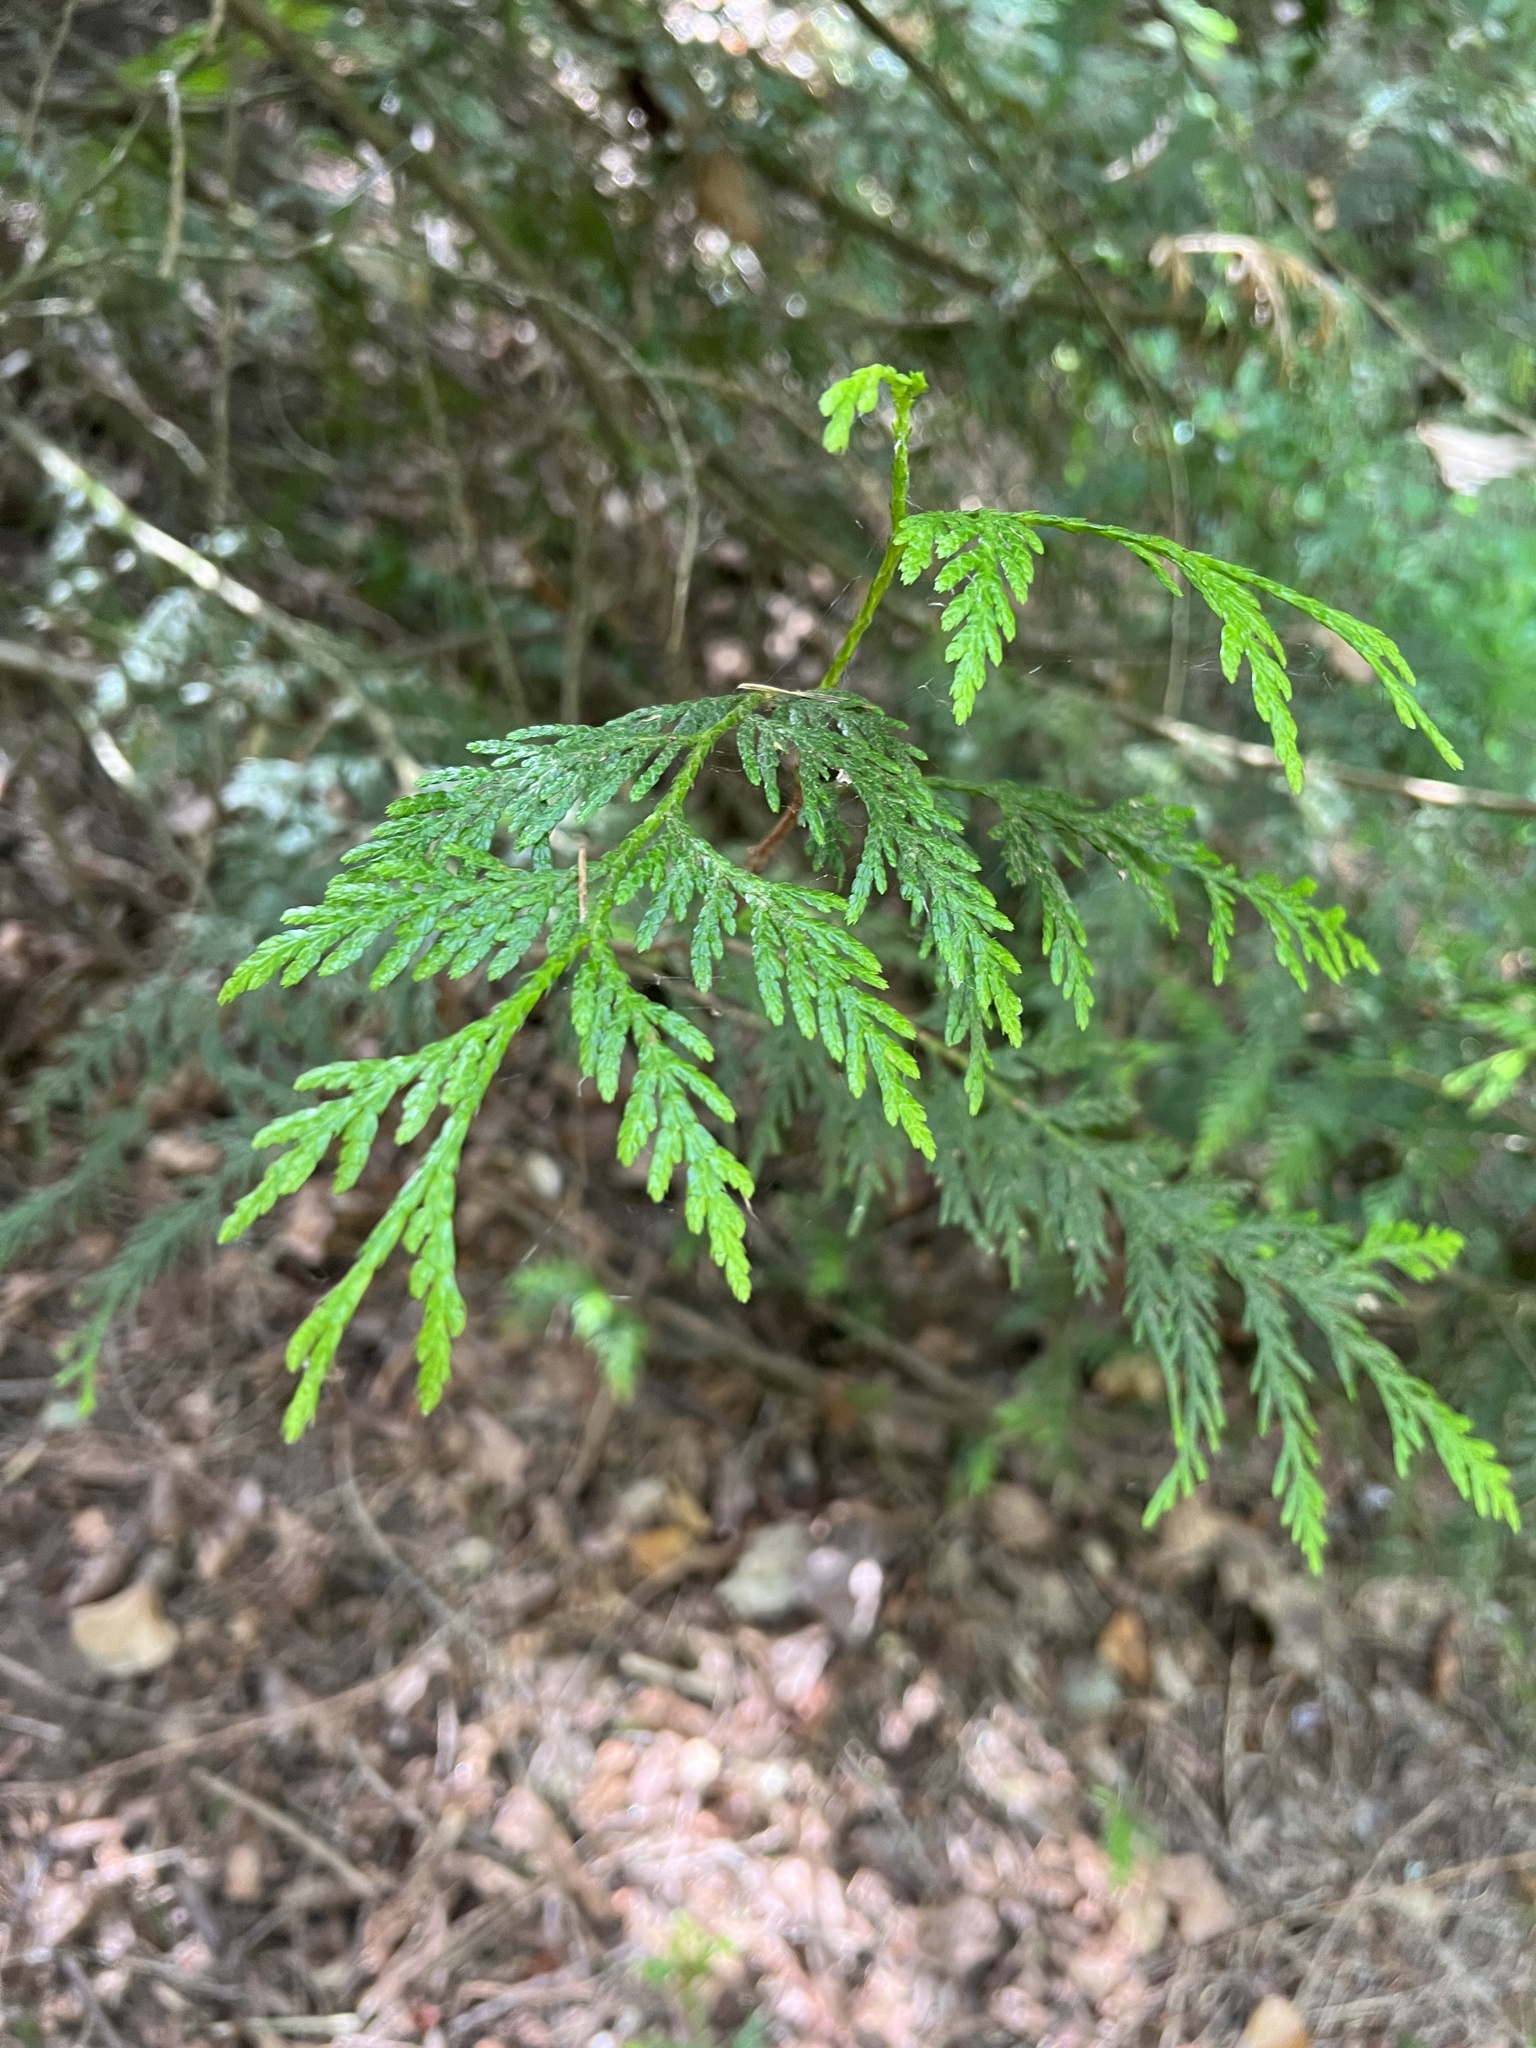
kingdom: Plantae
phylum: Tracheophyta
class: Pinopsida
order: Pinales
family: Cupressaceae
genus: Thuja
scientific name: Thuja plicata
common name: Western red-cedar
